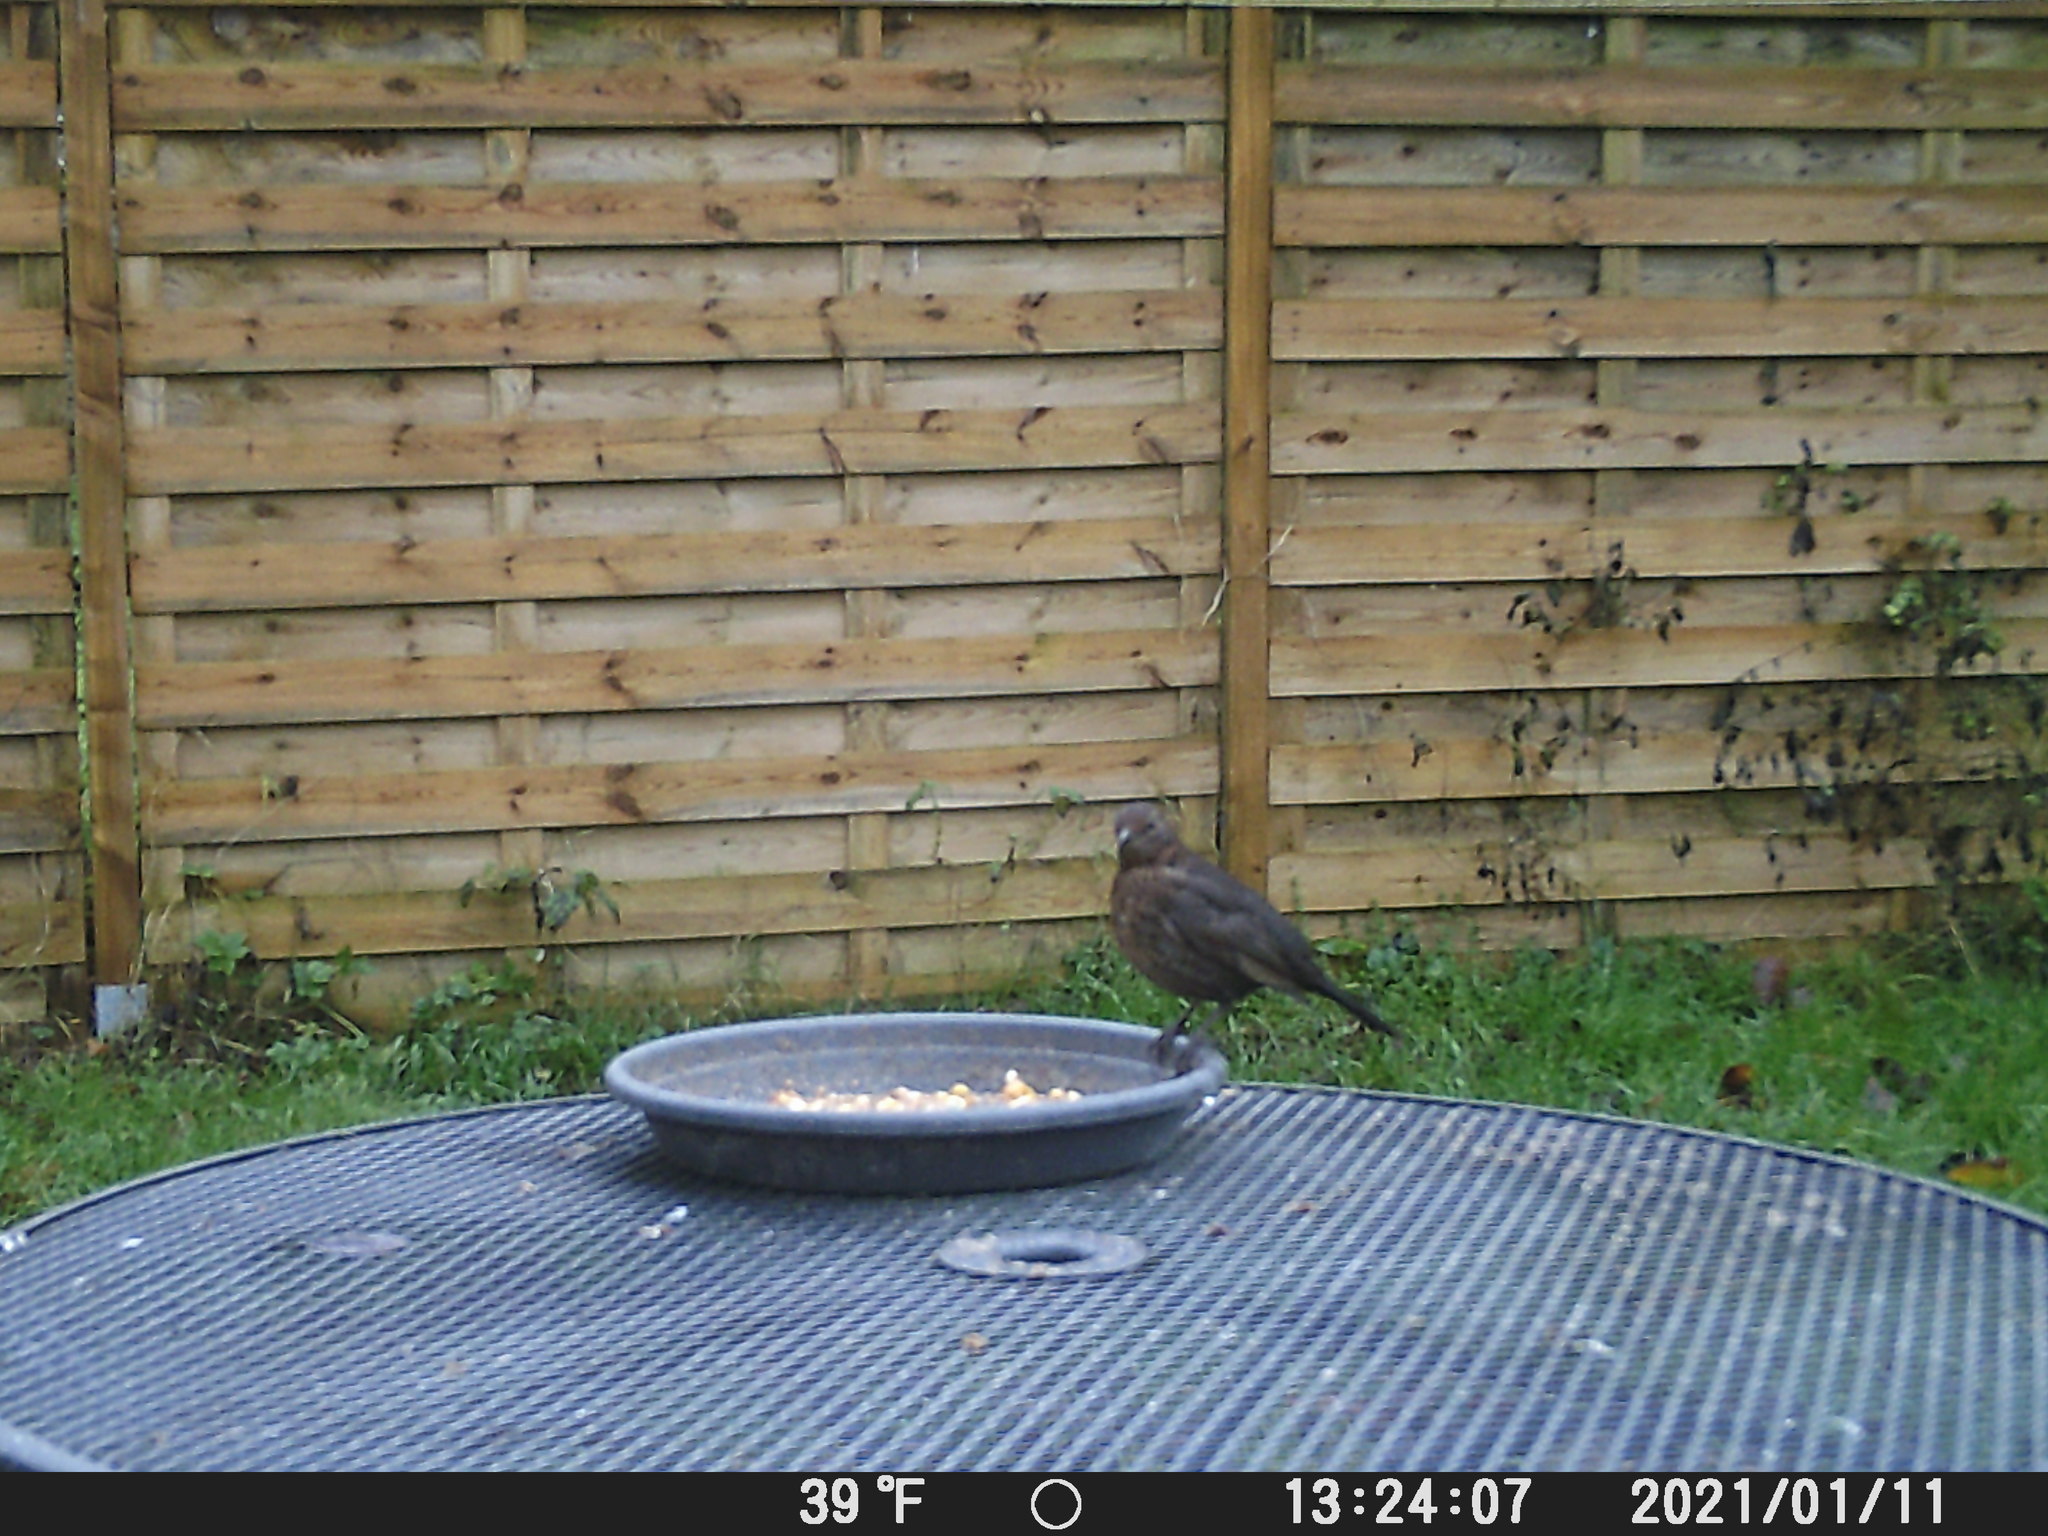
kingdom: Animalia
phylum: Chordata
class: Aves
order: Passeriformes
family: Turdidae
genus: Turdus
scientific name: Turdus merula
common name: Common blackbird
